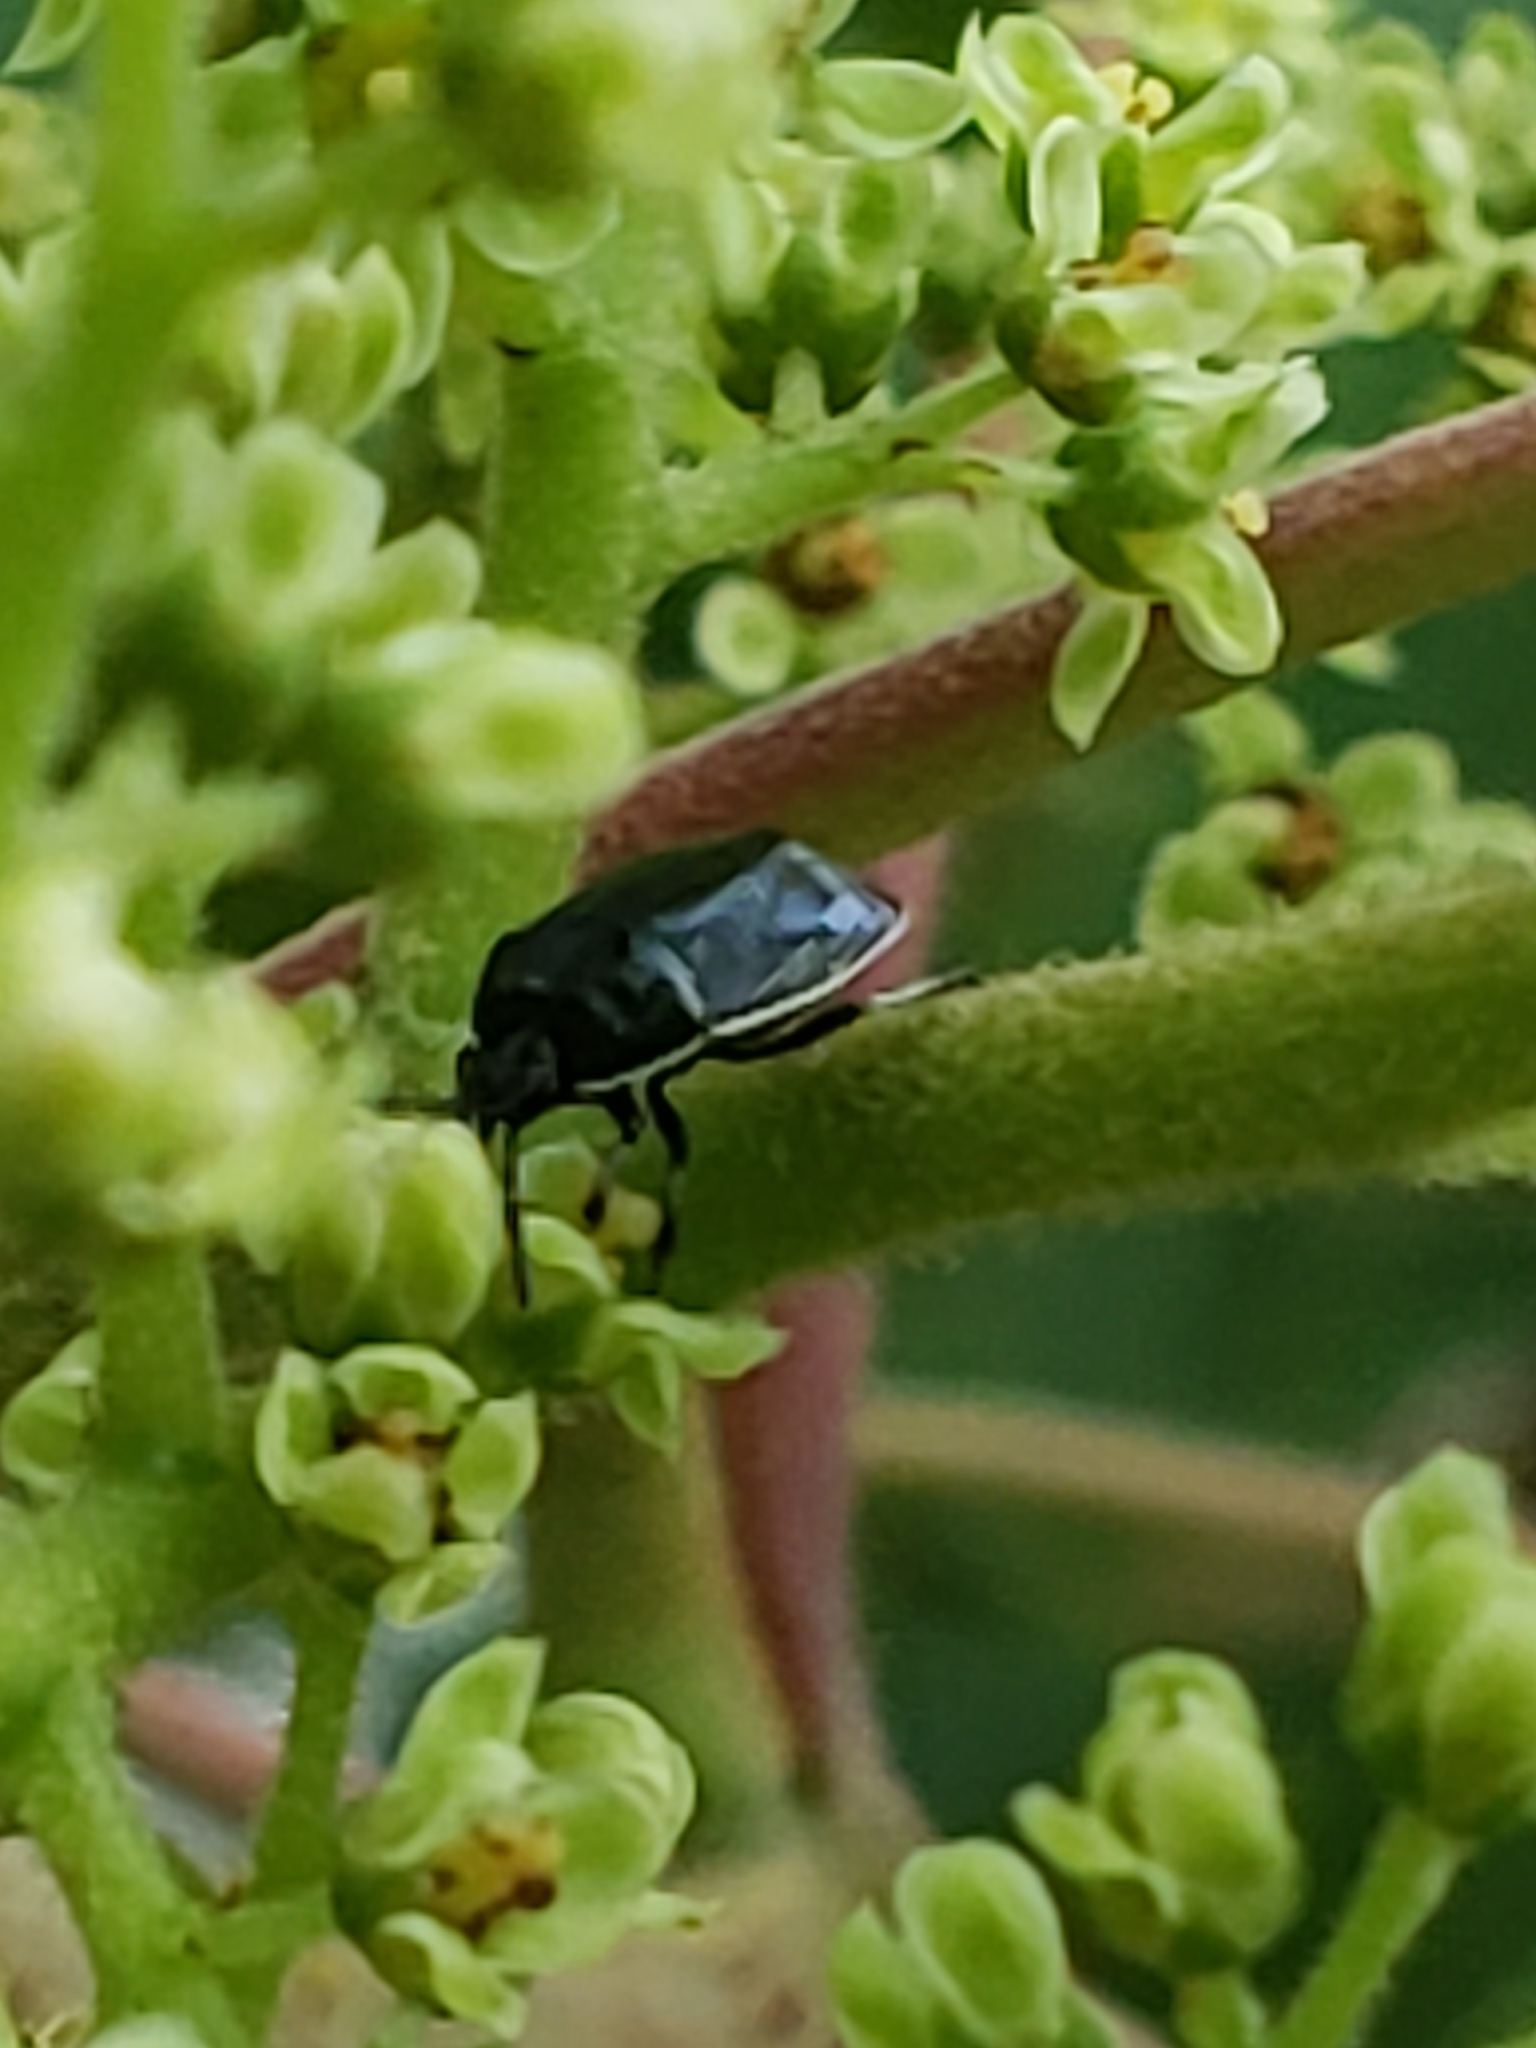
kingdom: Animalia
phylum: Arthropoda
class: Insecta
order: Hemiptera
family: Cydnidae
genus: Sehirus
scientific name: Sehirus cinctus
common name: White-margined burrower bug
